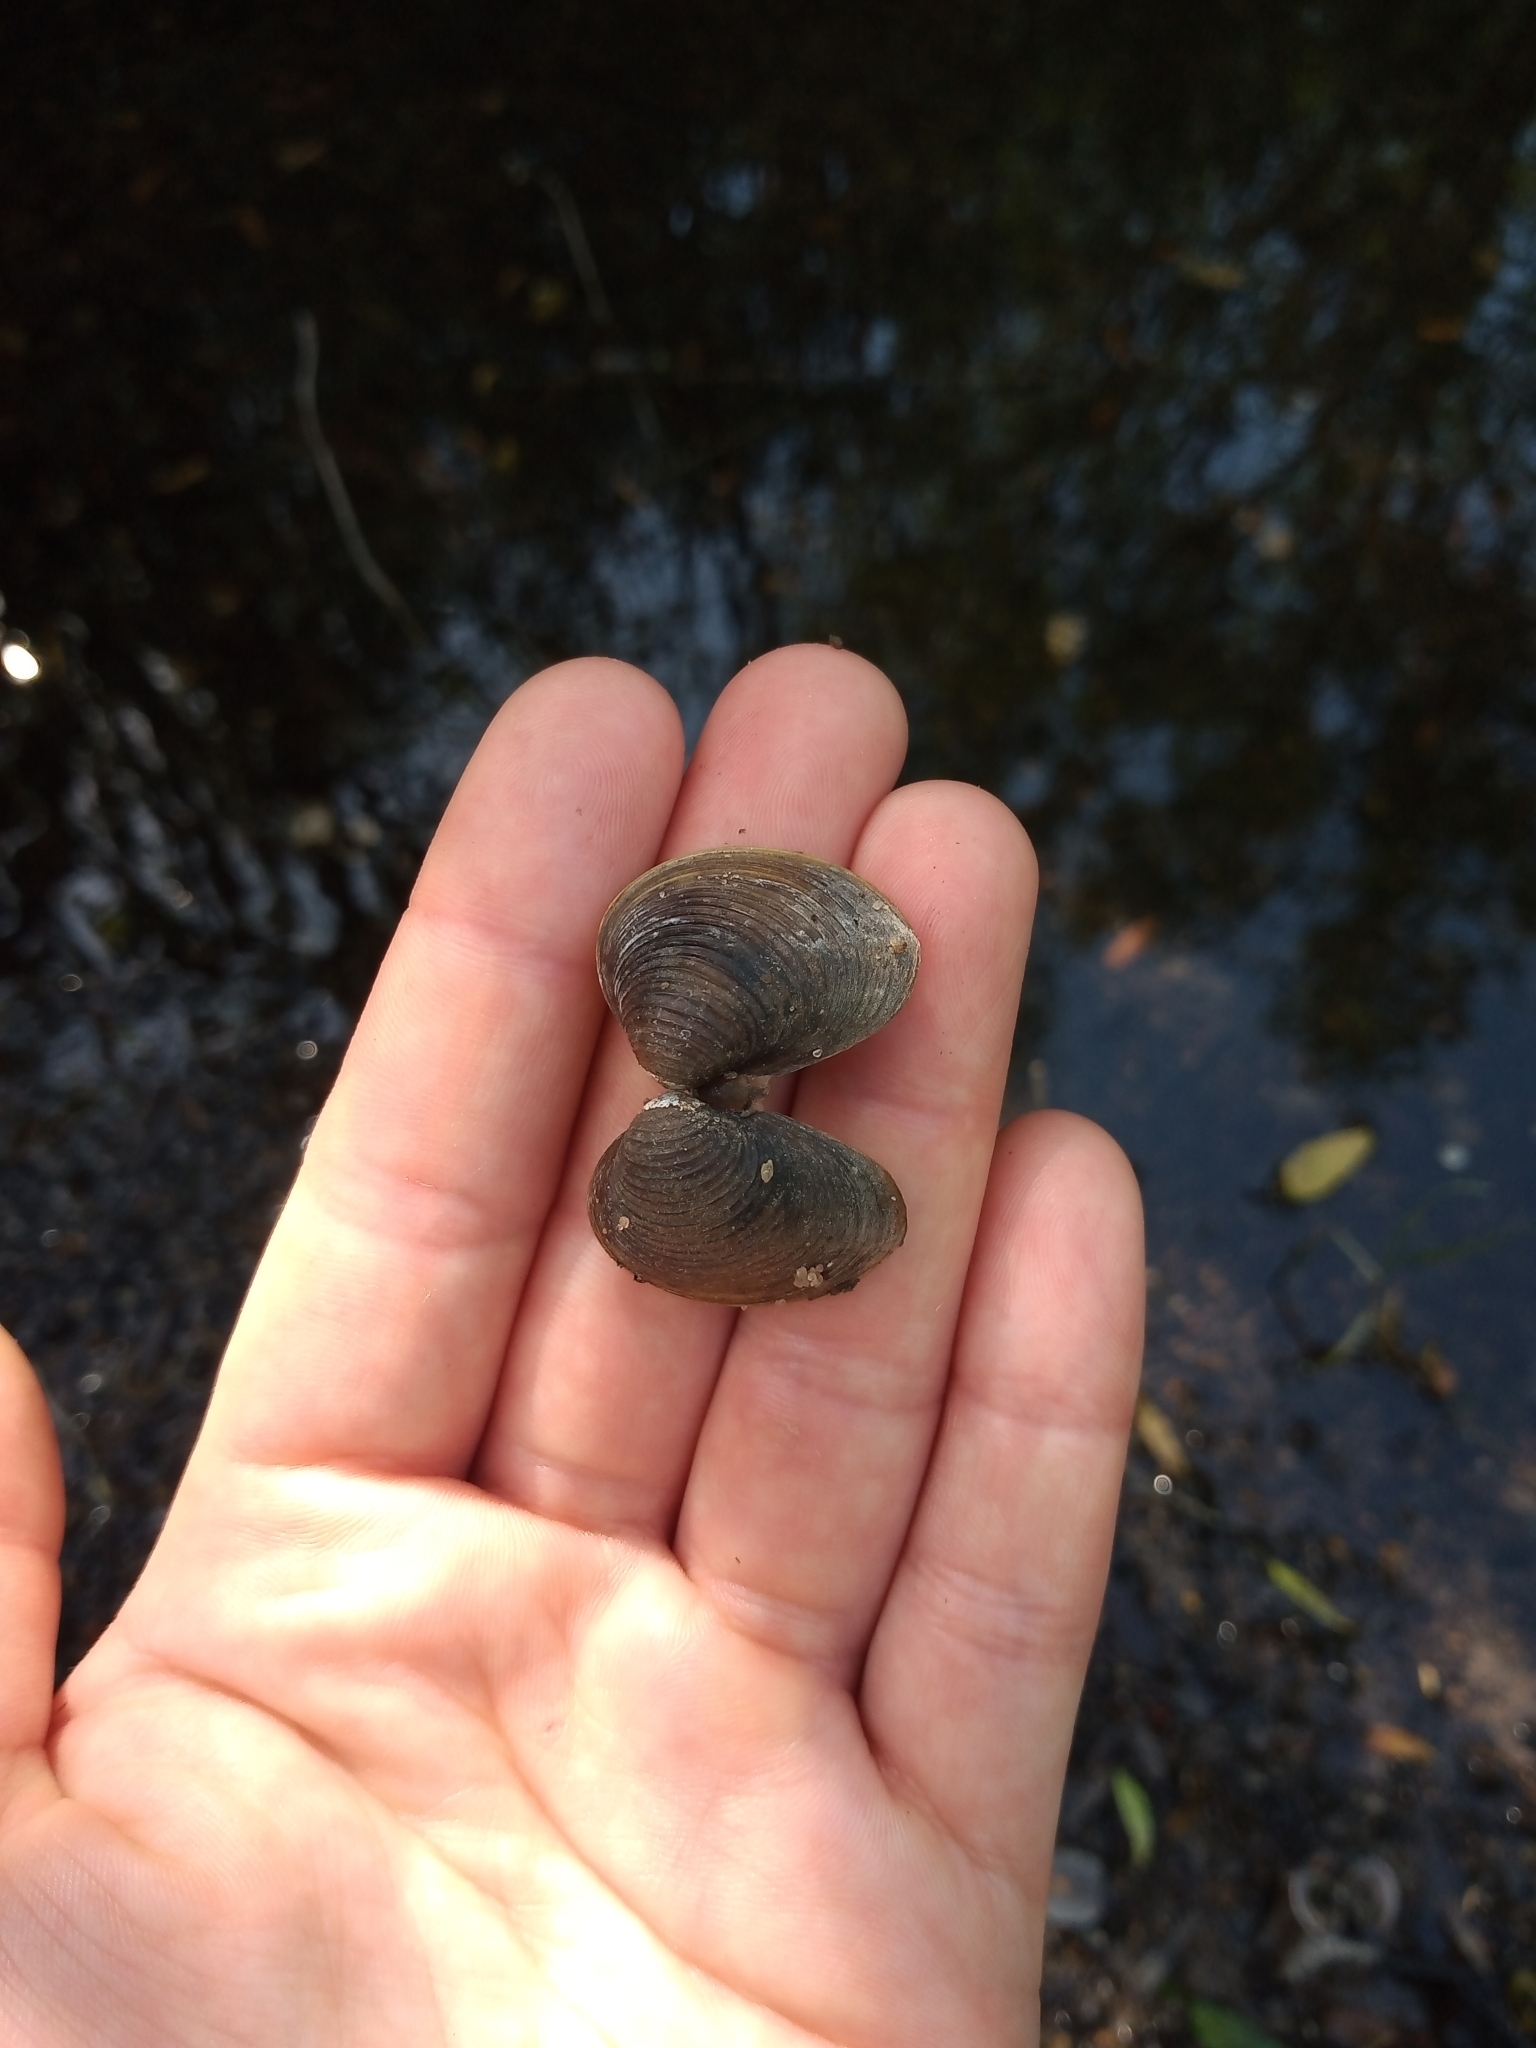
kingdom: Animalia
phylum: Mollusca
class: Bivalvia
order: Venerida
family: Cyrenidae
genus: Corbicula
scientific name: Corbicula fluminea
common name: Asian clam
